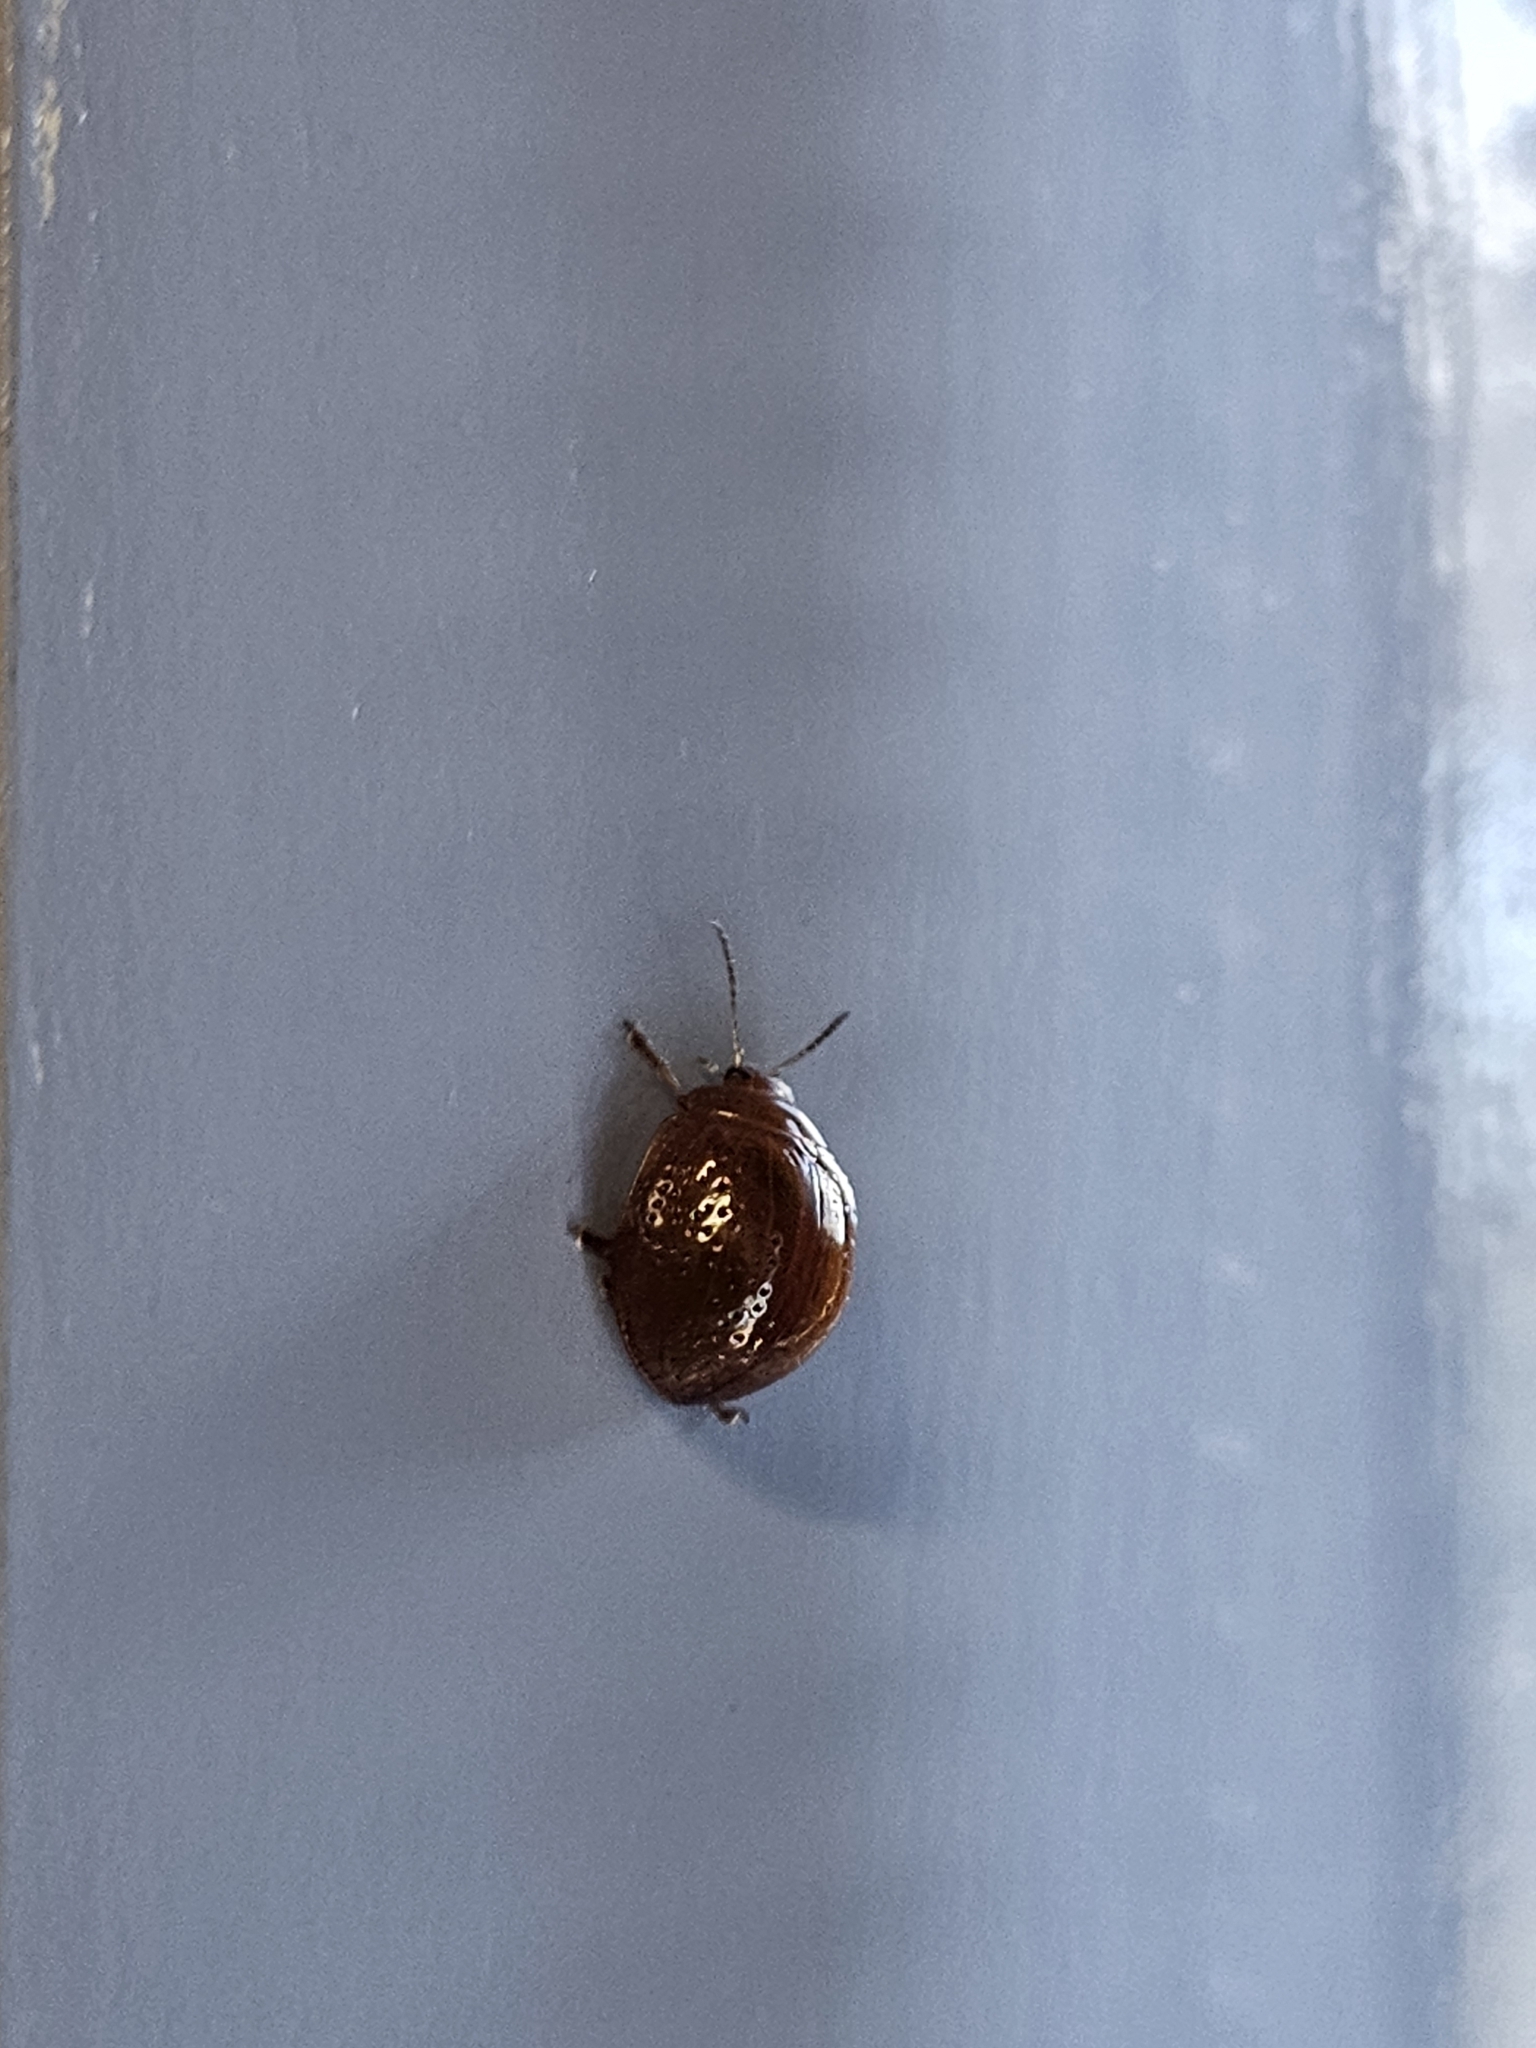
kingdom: Animalia
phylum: Arthropoda
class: Insecta
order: Coleoptera
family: Chrysomelidae
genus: Dicranosterna
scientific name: Dicranosterna
